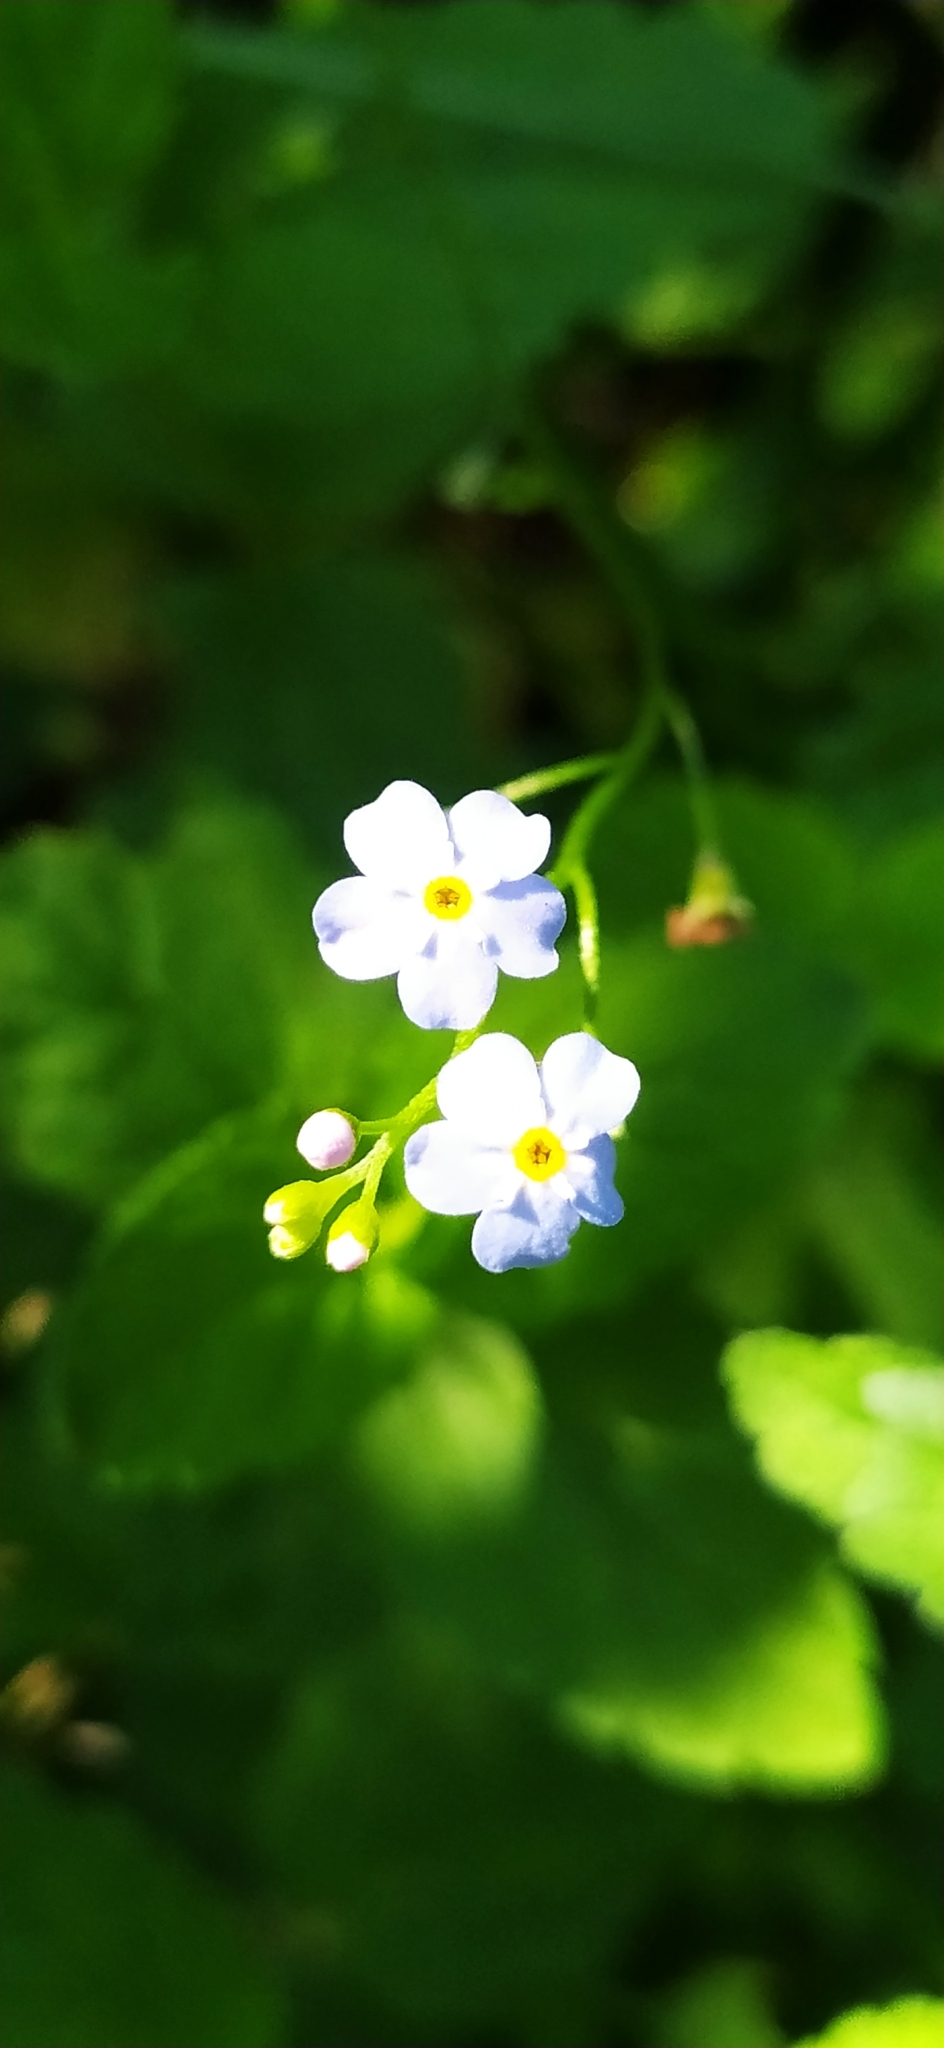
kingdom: Plantae
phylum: Tracheophyta
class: Magnoliopsida
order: Boraginales
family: Boraginaceae
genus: Myosotis
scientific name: Myosotis scorpioides
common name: Water forget-me-not
